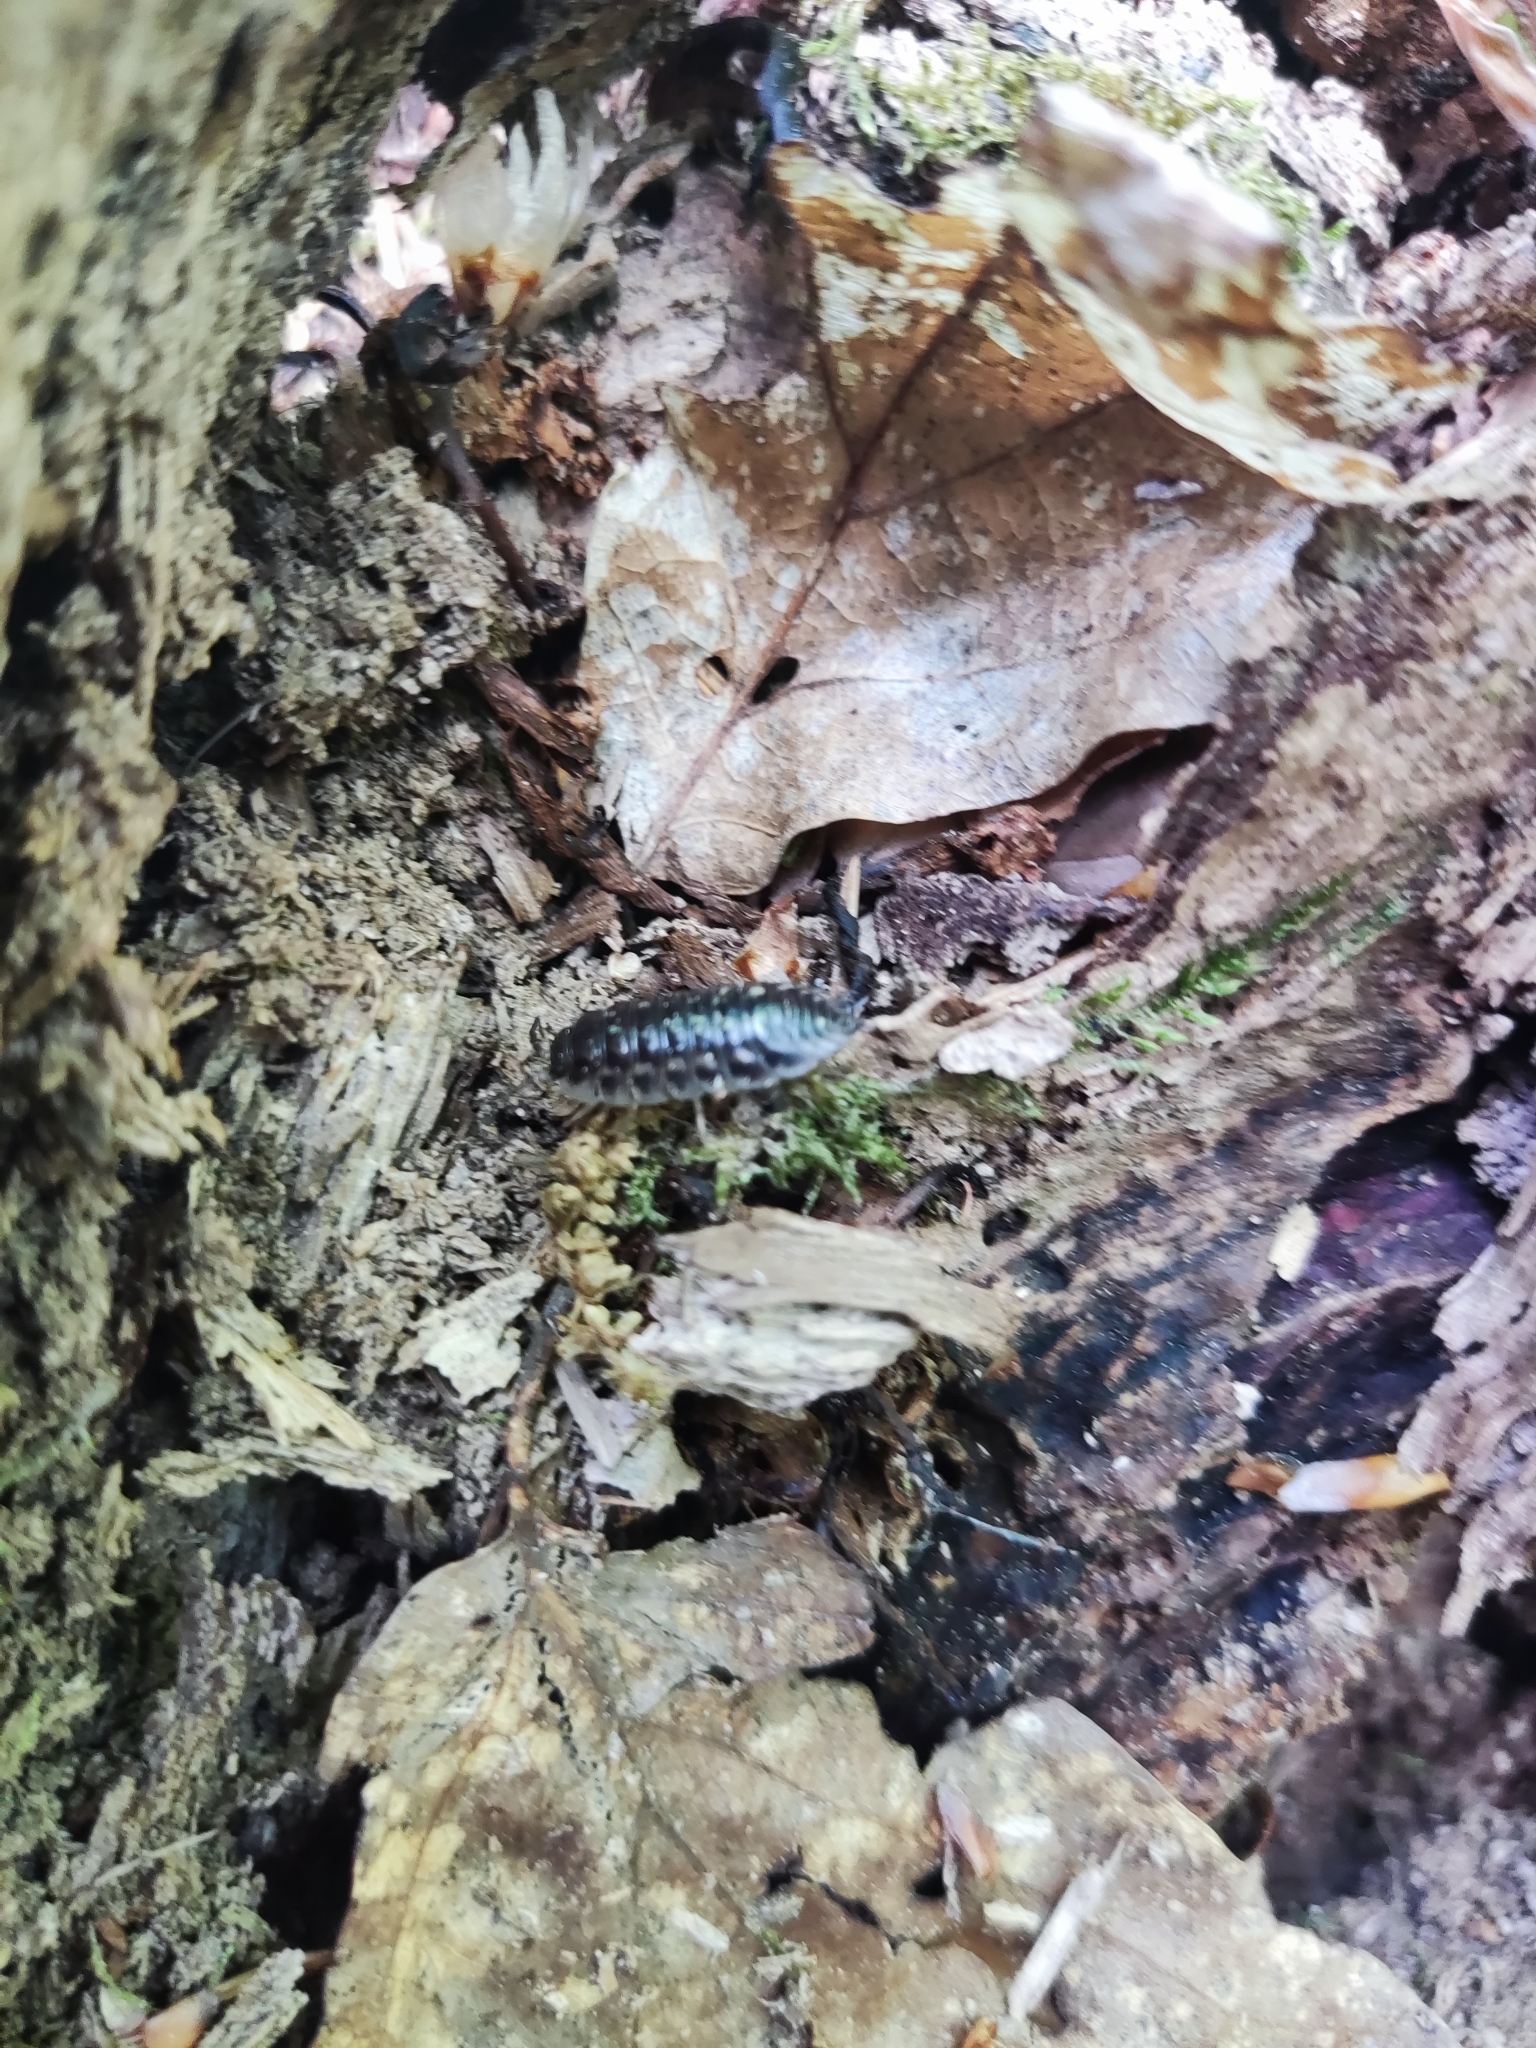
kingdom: Animalia
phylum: Arthropoda
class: Malacostraca
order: Isopoda
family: Oniscidae
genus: Oniscus
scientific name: Oniscus asellus
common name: Common shiny woodlouse
